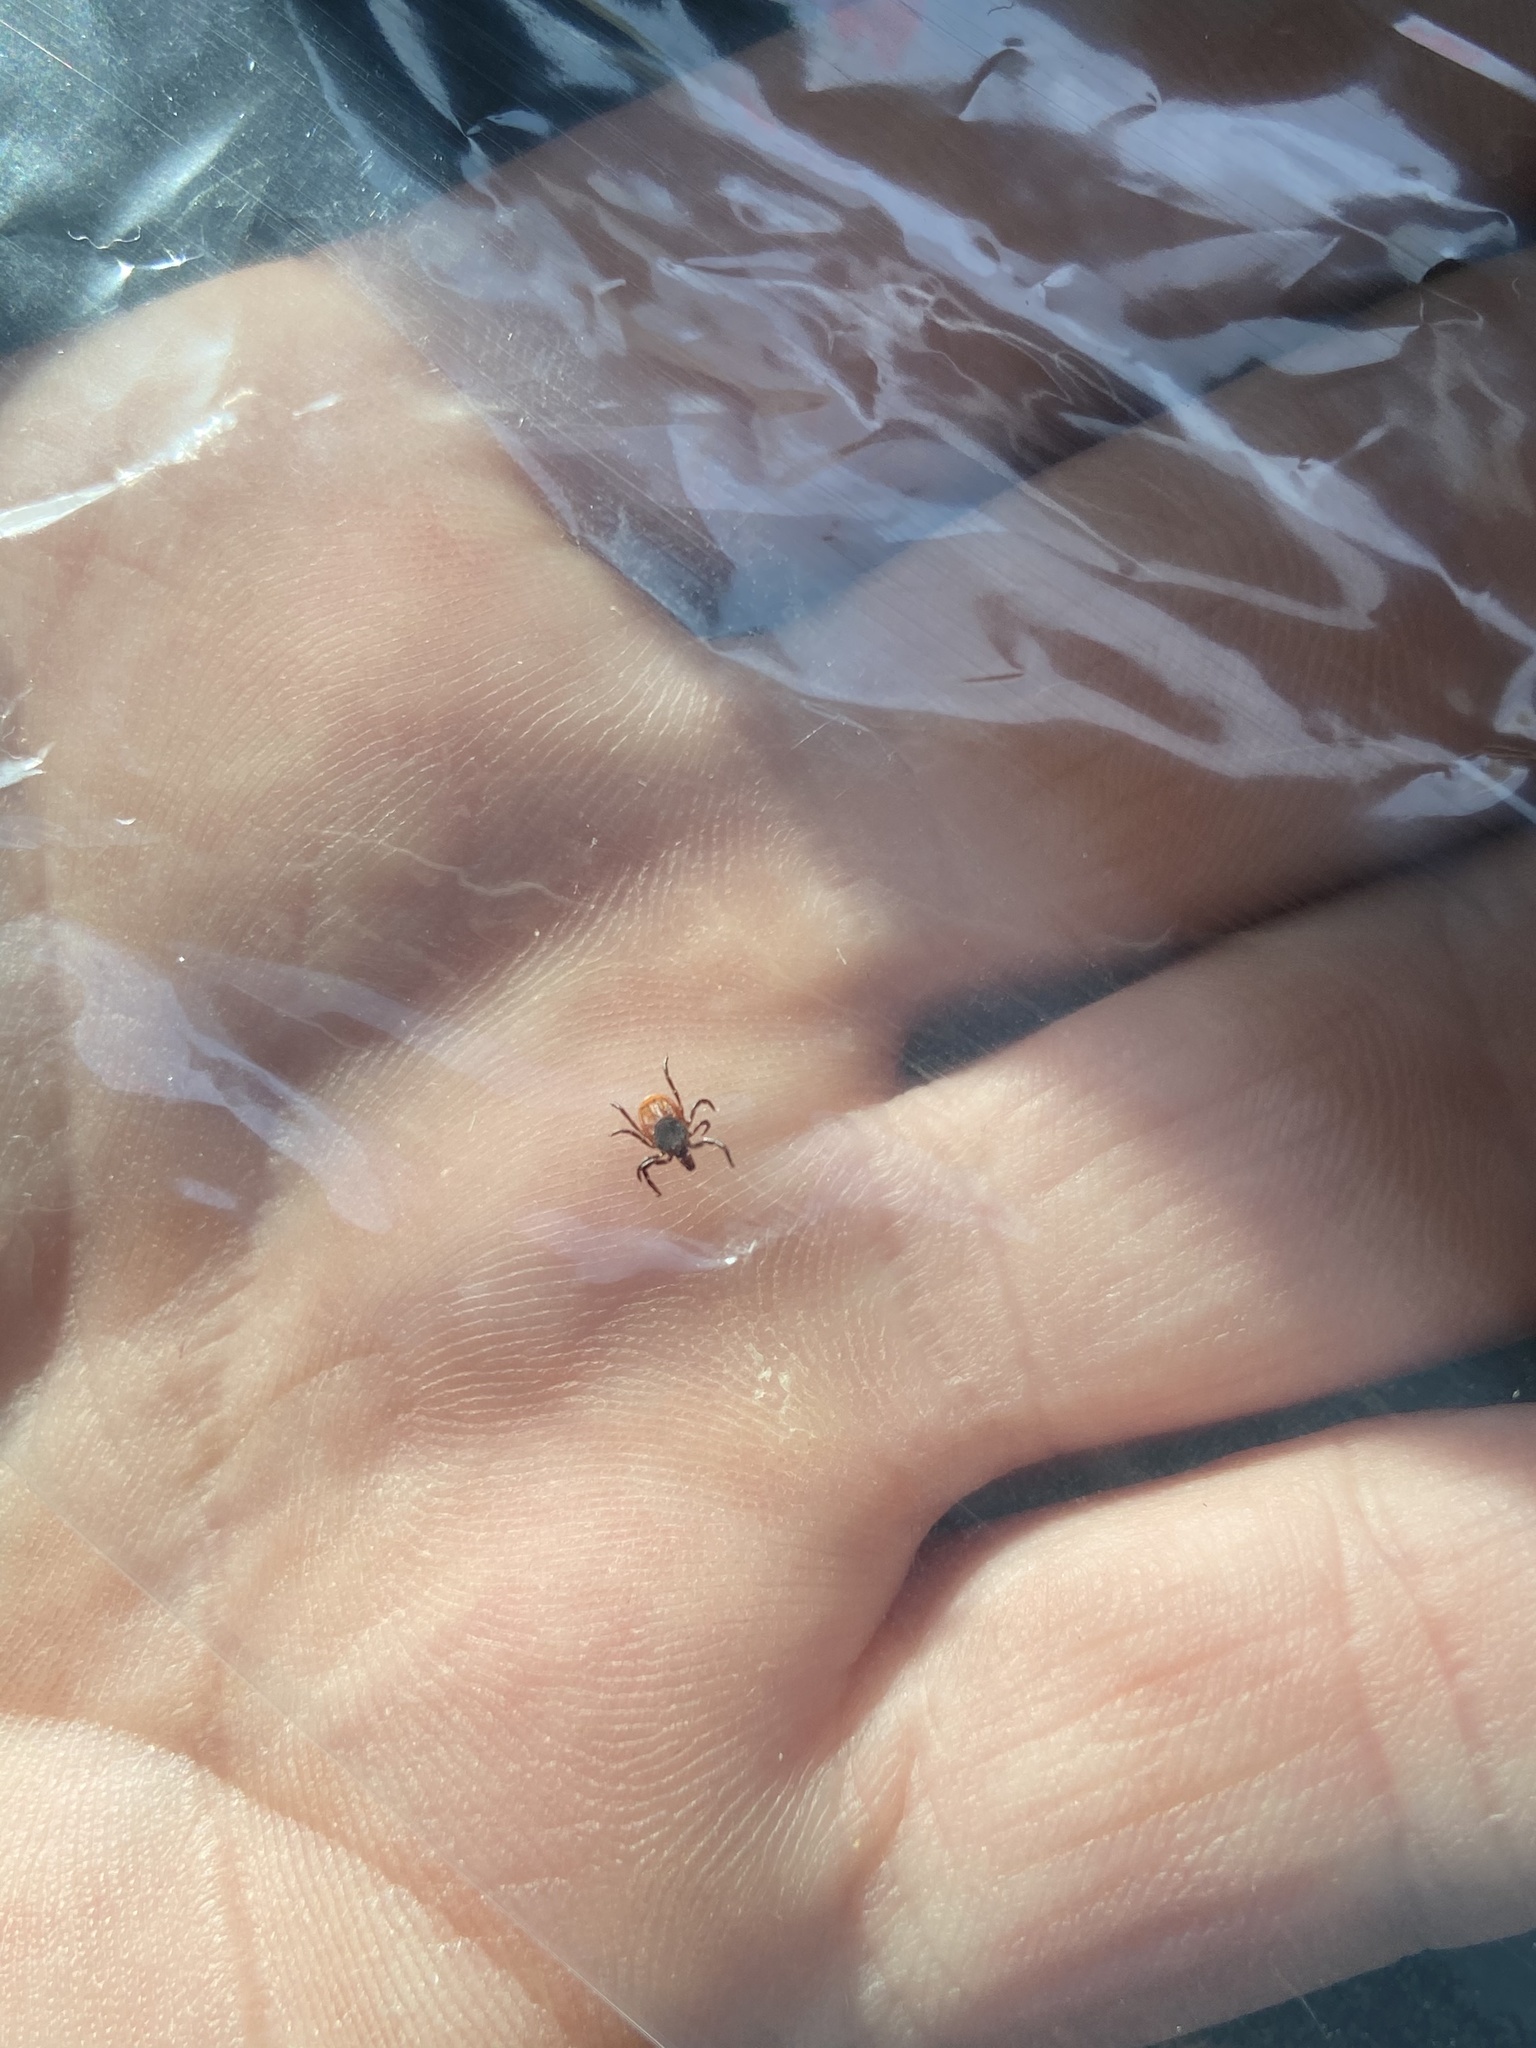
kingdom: Animalia
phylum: Arthropoda
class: Arachnida
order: Ixodida
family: Ixodidae
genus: Ixodes
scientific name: Ixodes scapularis
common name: Black legged tick
